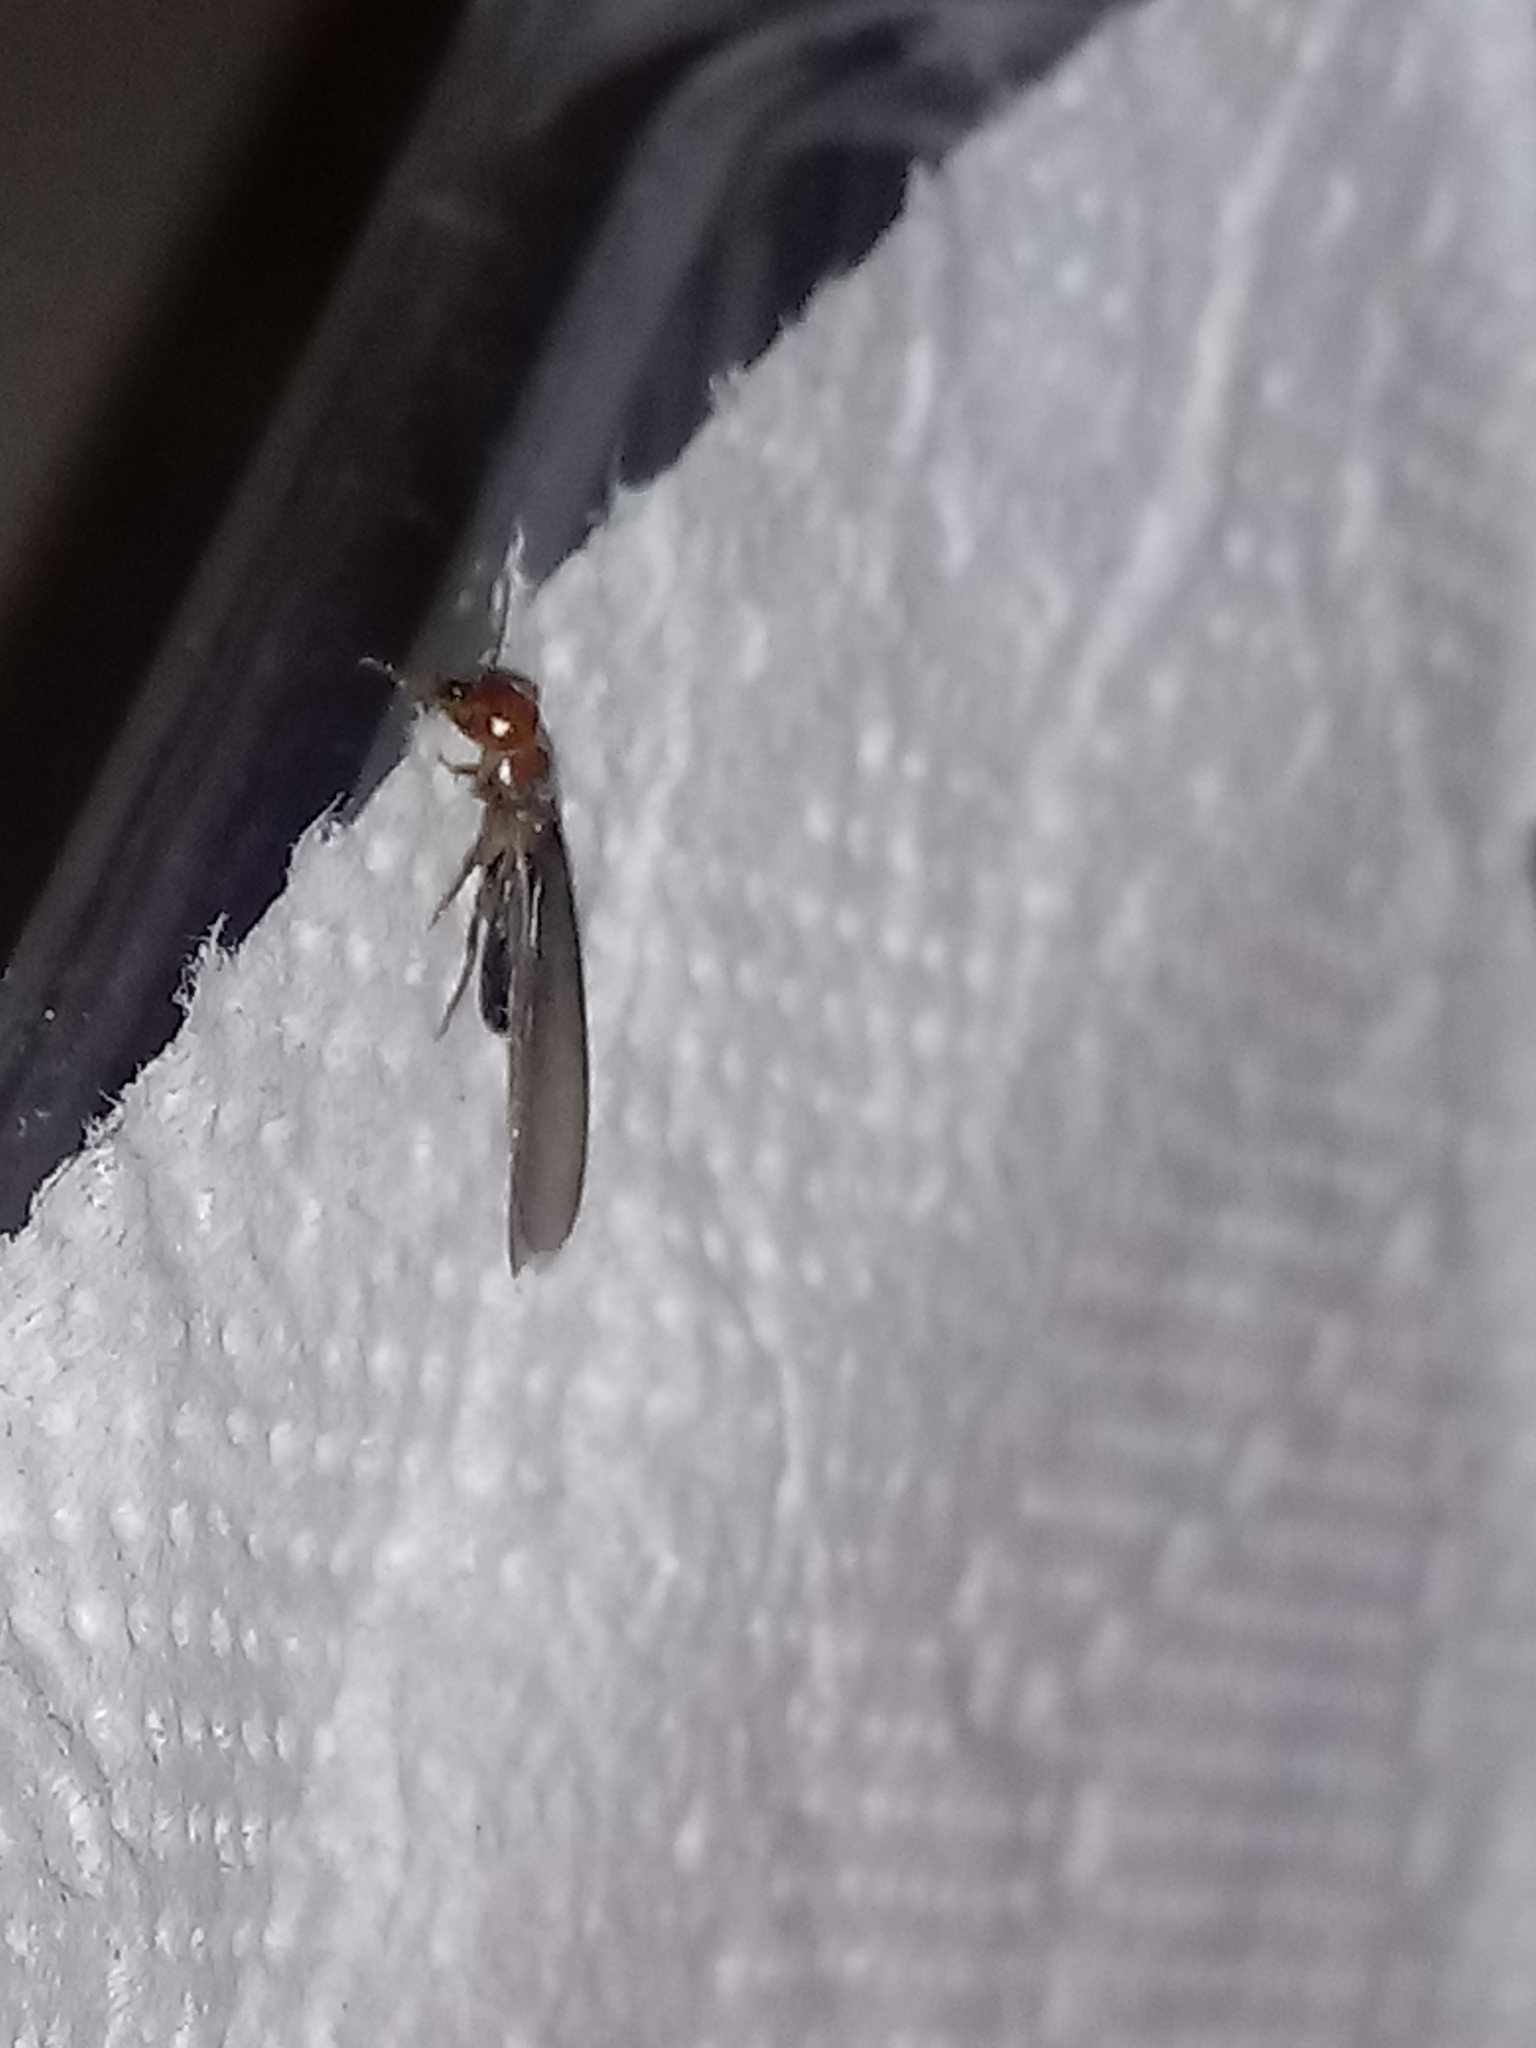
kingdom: Animalia
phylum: Arthropoda
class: Insecta
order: Blattodea
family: Kalotermitidae
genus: Incisitermes
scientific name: Incisitermes minor
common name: Termite
